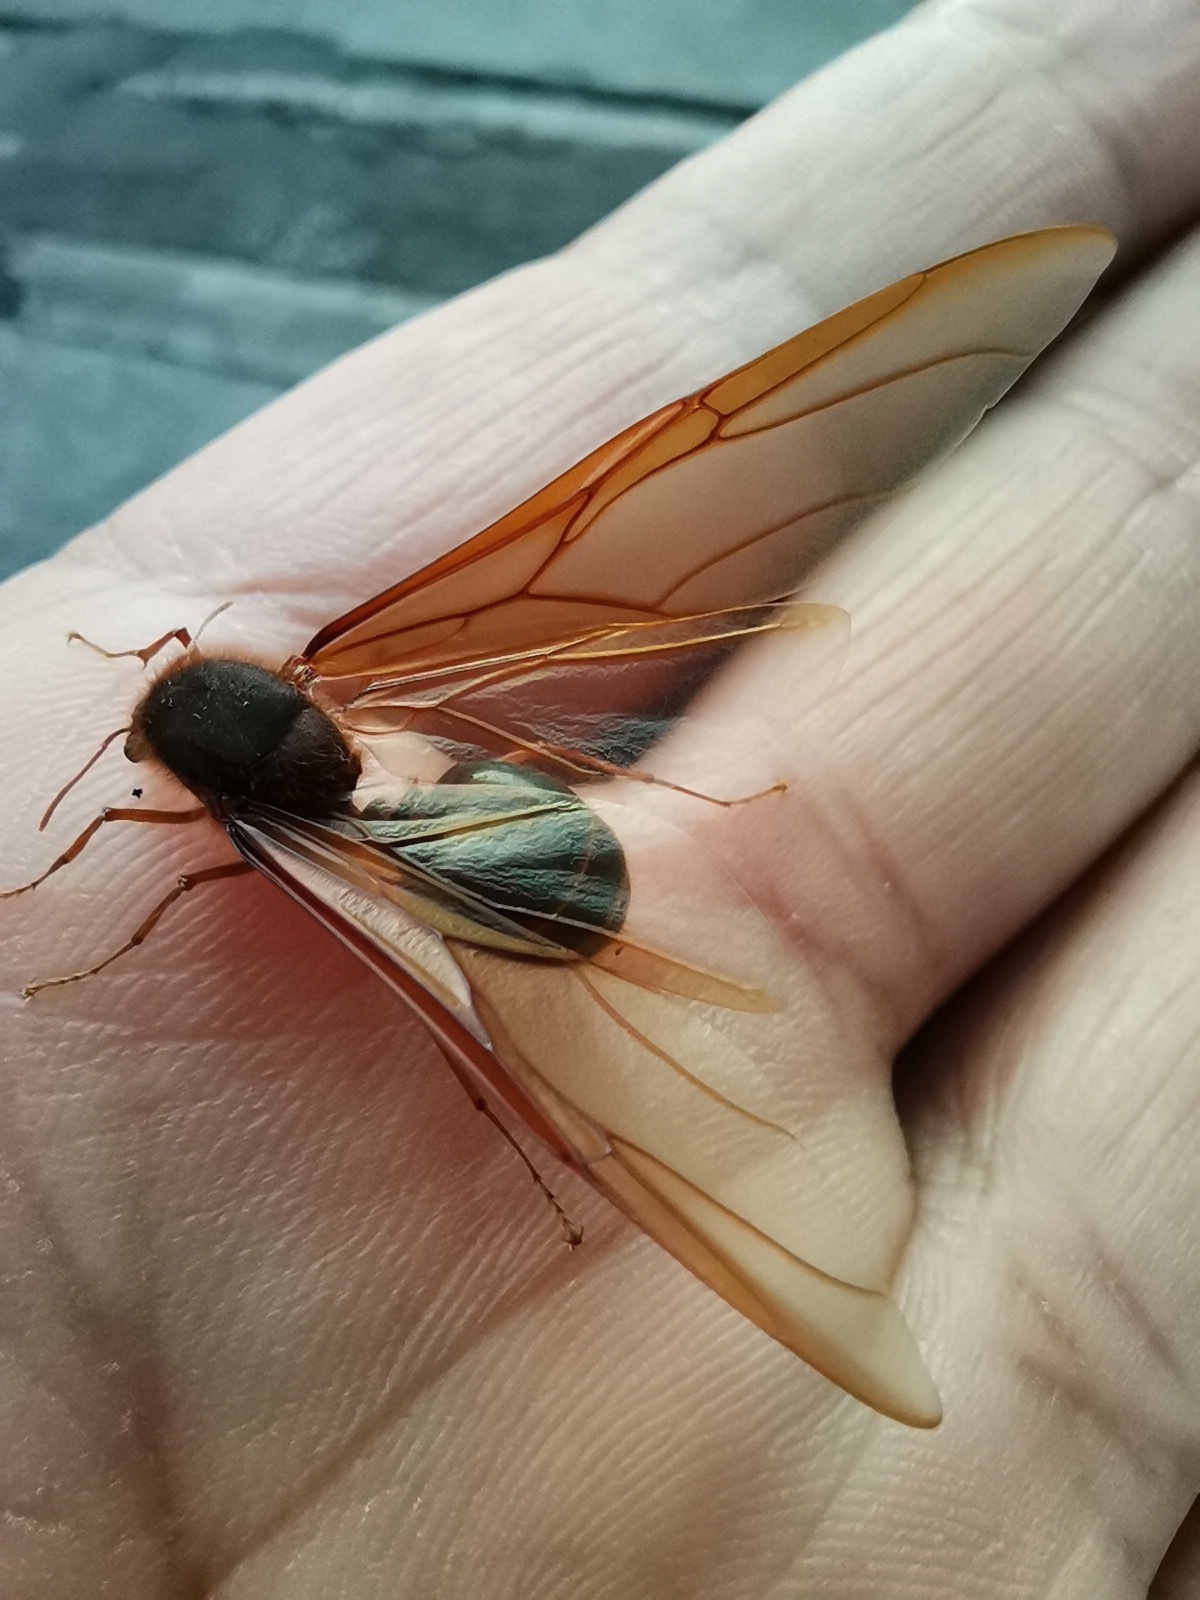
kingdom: Animalia
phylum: Arthropoda
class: Insecta
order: Hymenoptera
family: Formicidae
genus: Atta
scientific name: Atta mexicana
